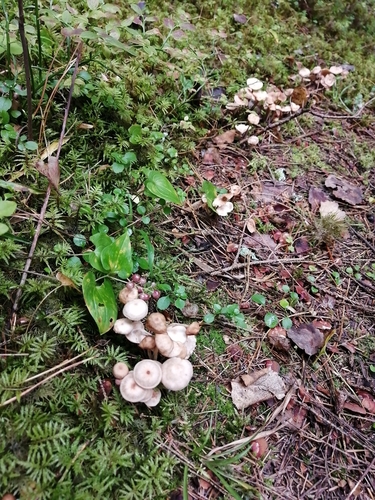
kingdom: Fungi
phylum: Basidiomycota
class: Agaricomycetes
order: Agaricales
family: Omphalotaceae
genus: Gymnopus
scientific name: Gymnopus
